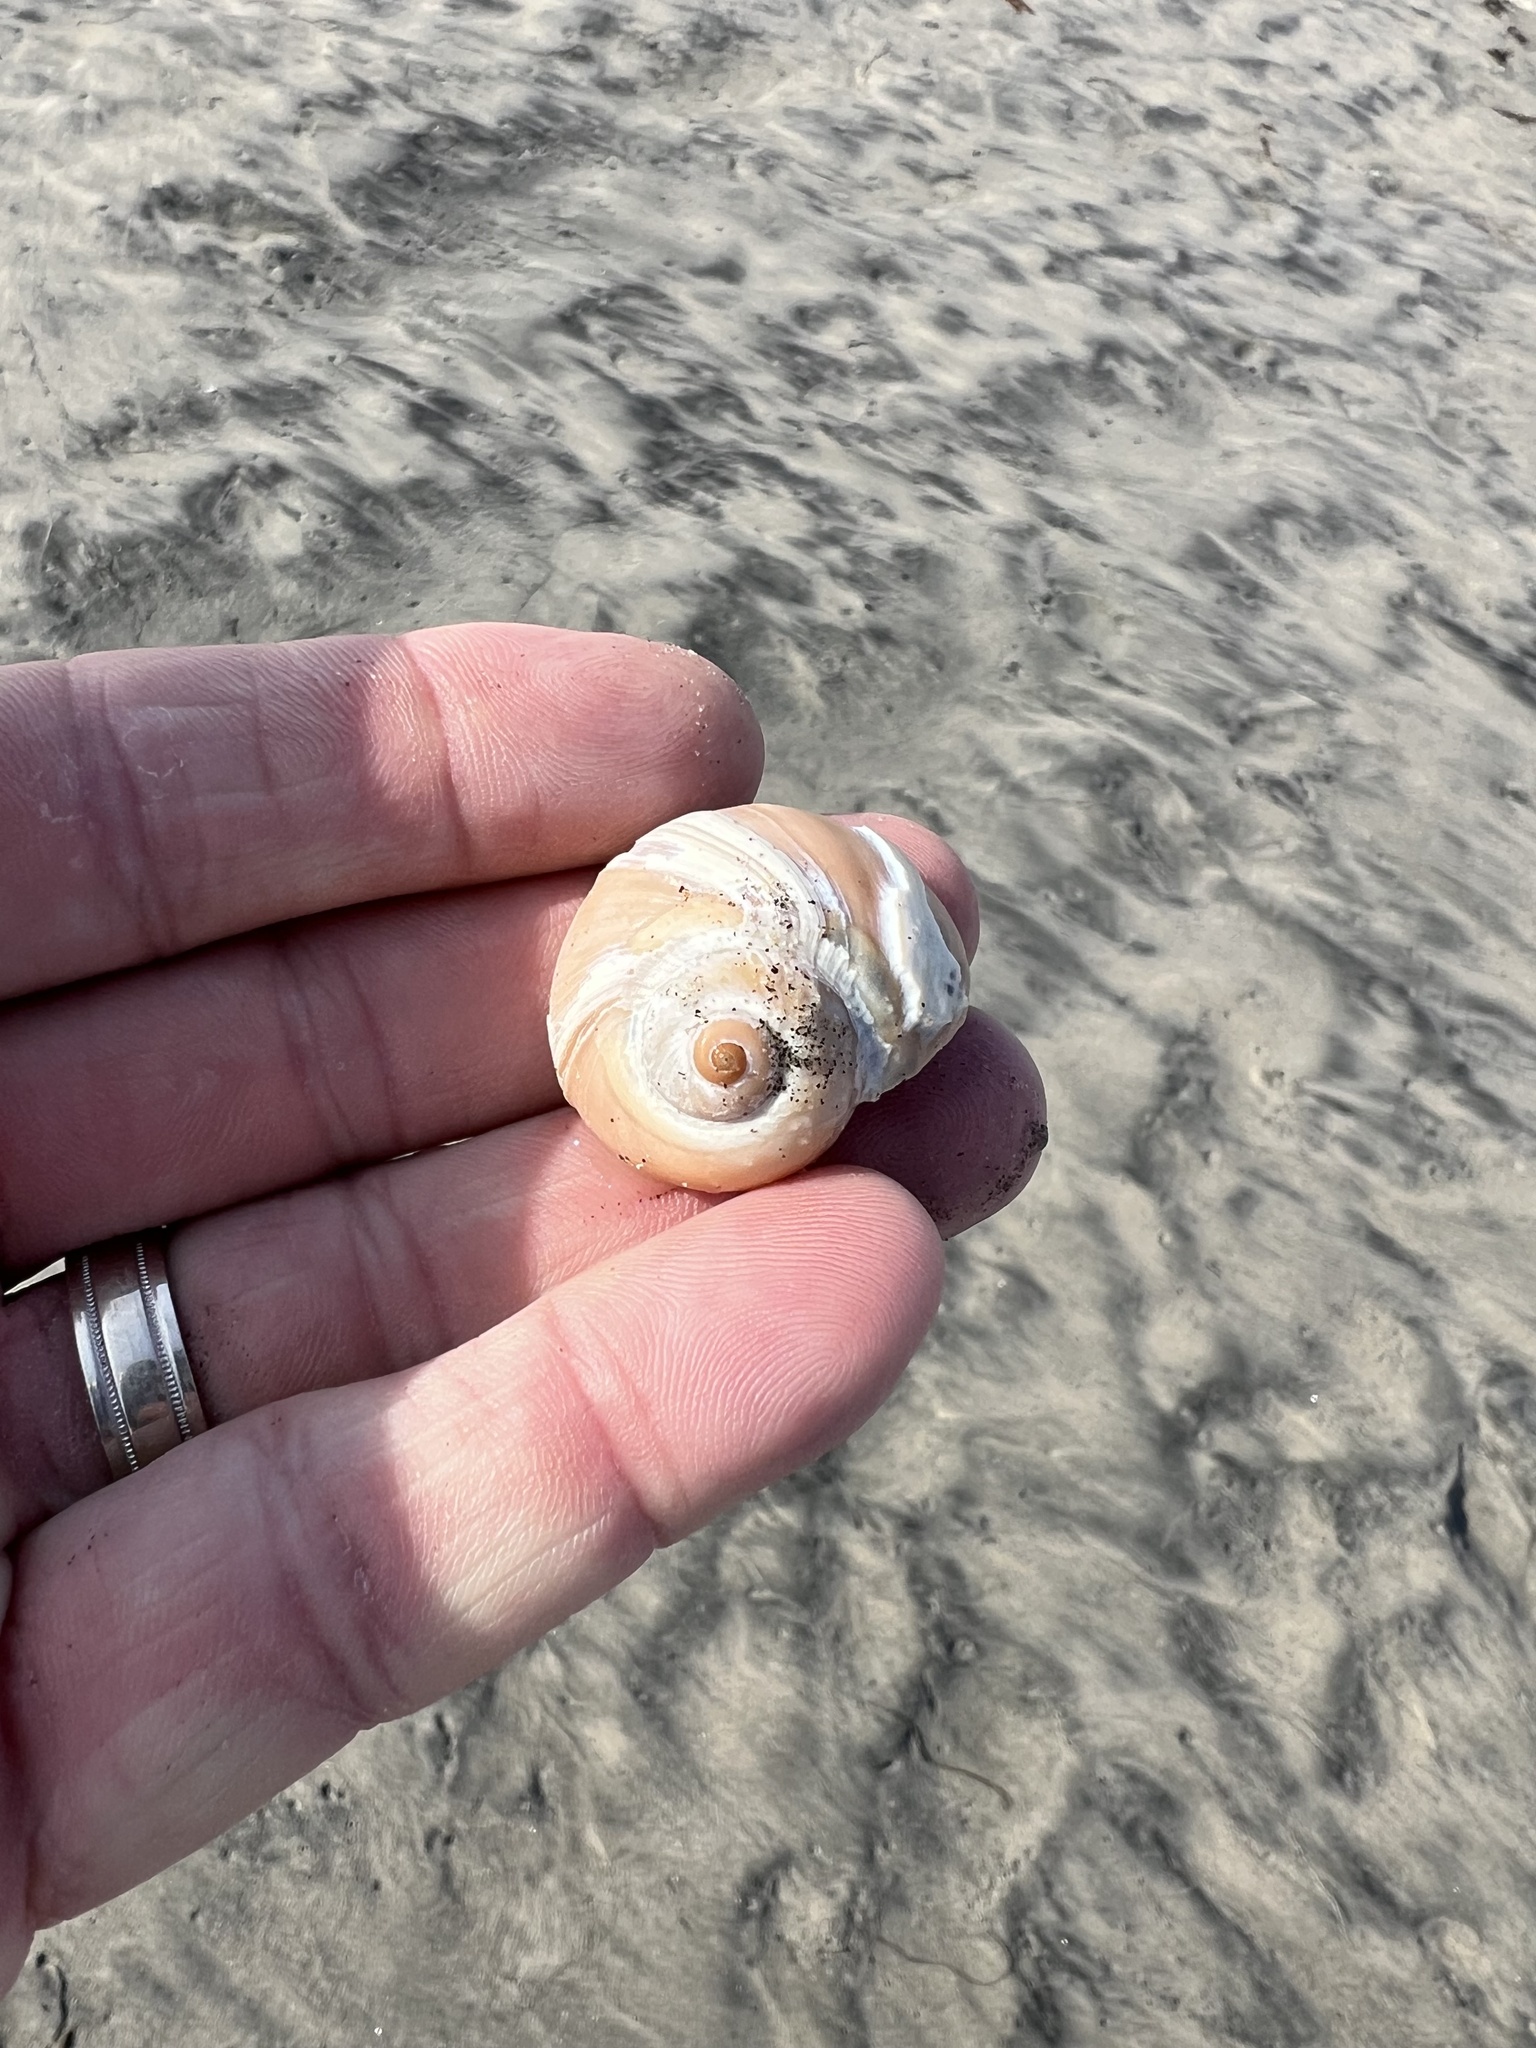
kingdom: Animalia
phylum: Mollusca
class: Gastropoda
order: Littorinimorpha
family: Naticidae
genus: Glossaulax
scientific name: Glossaulax reclusiana
